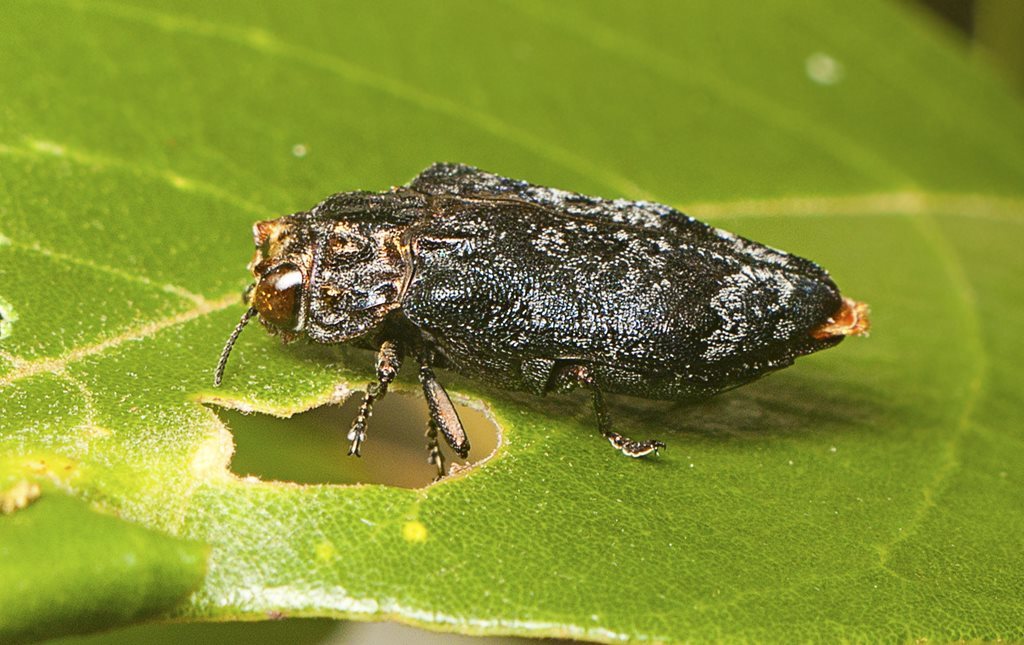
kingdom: Animalia
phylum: Arthropoda
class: Insecta
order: Coleoptera
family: Buprestidae
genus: Hypocisseis
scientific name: Hypocisseis latipennis
